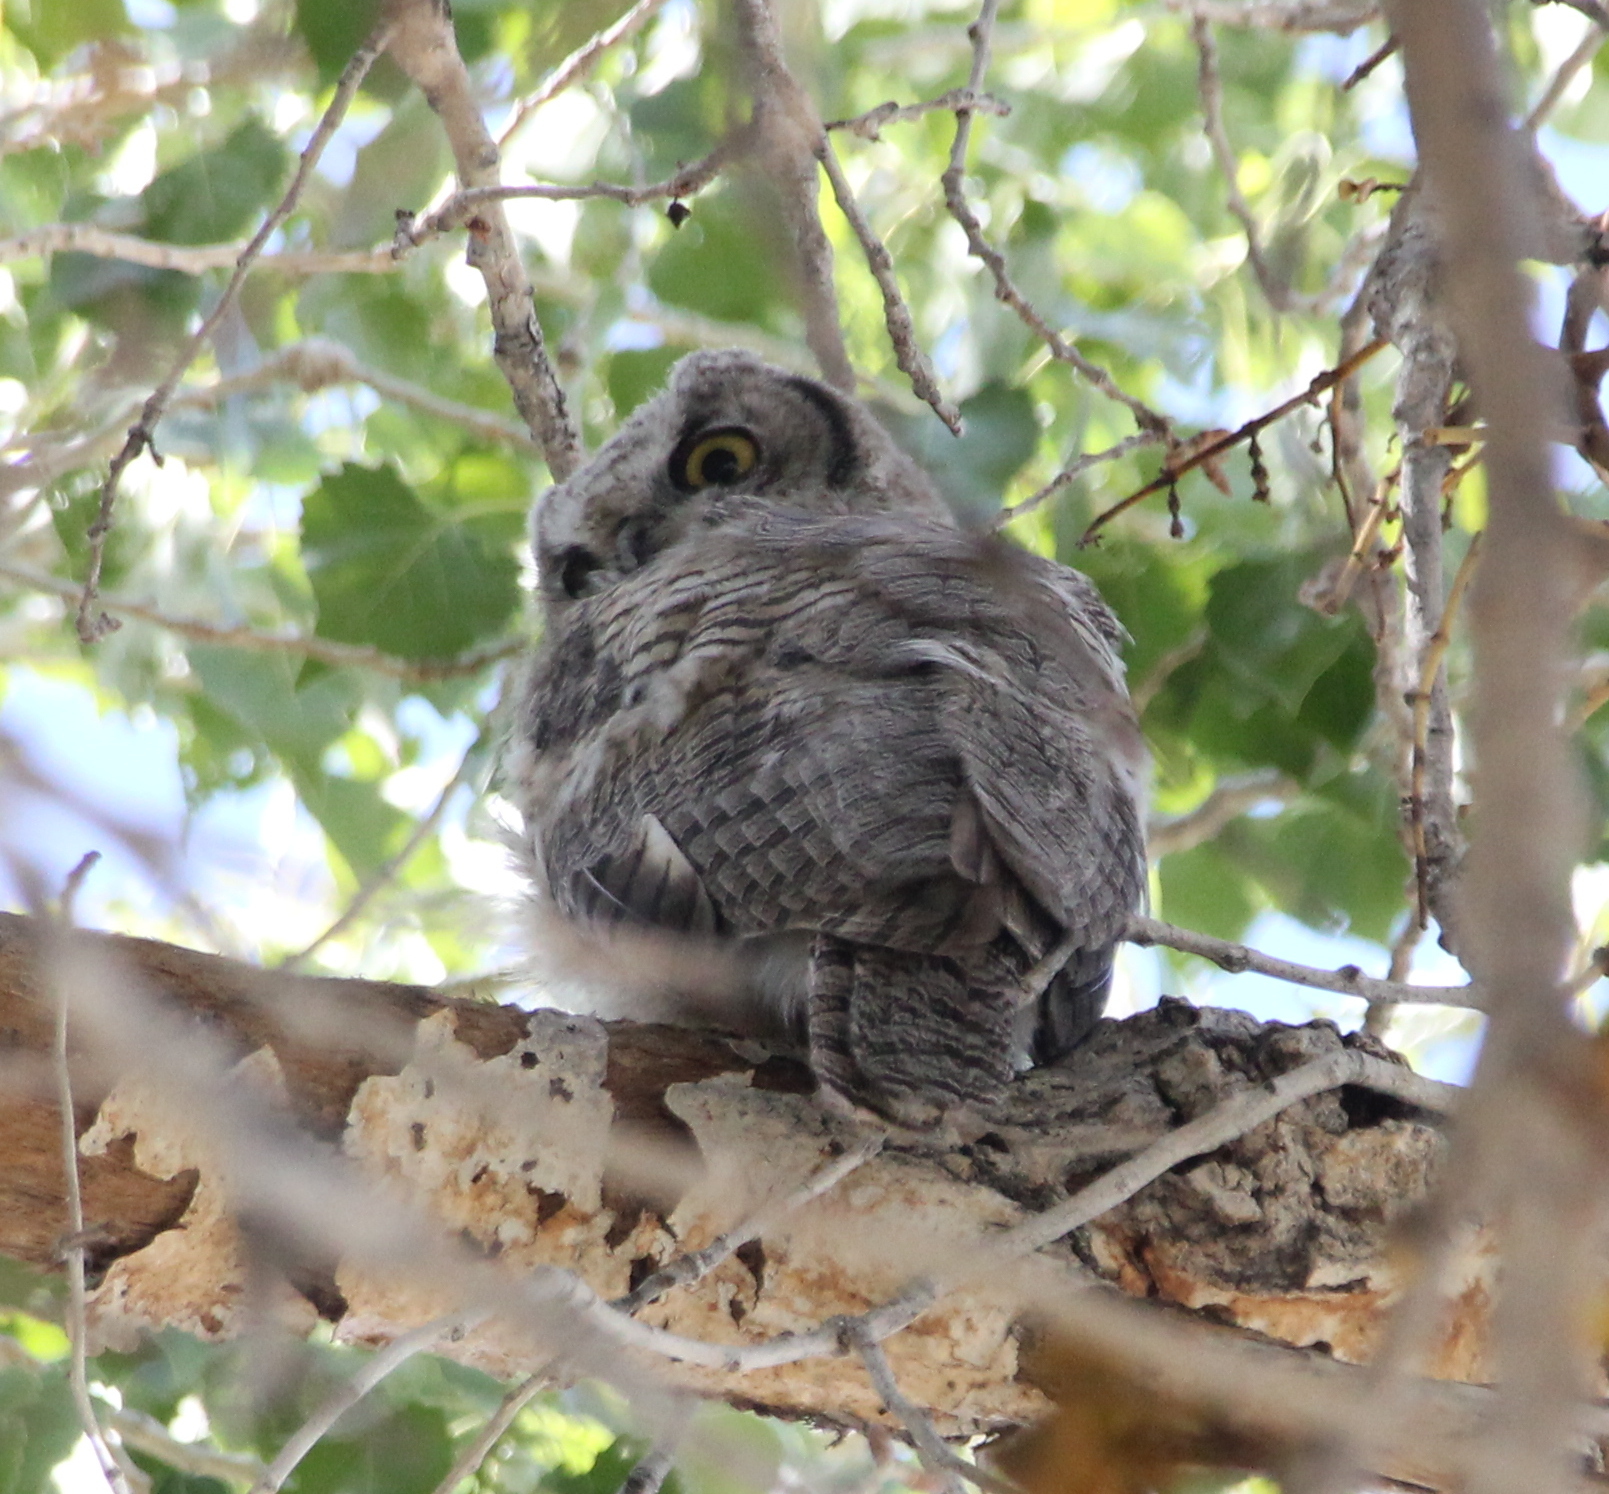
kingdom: Animalia
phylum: Chordata
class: Aves
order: Strigiformes
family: Strigidae
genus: Bubo
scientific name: Bubo virginianus
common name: Great horned owl
